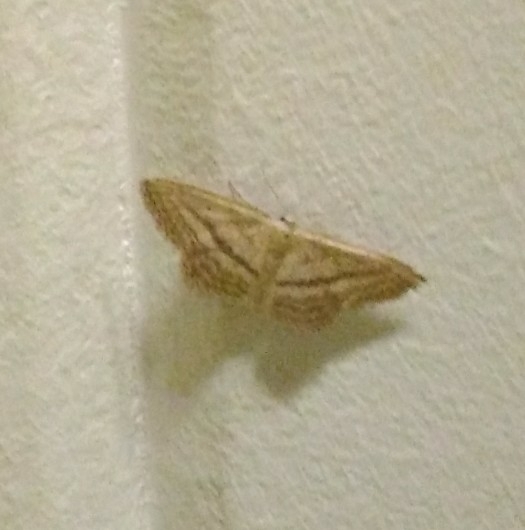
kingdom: Animalia
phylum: Arthropoda
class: Insecta
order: Lepidoptera
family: Geometridae
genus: Idaea
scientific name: Idaea mediaria
